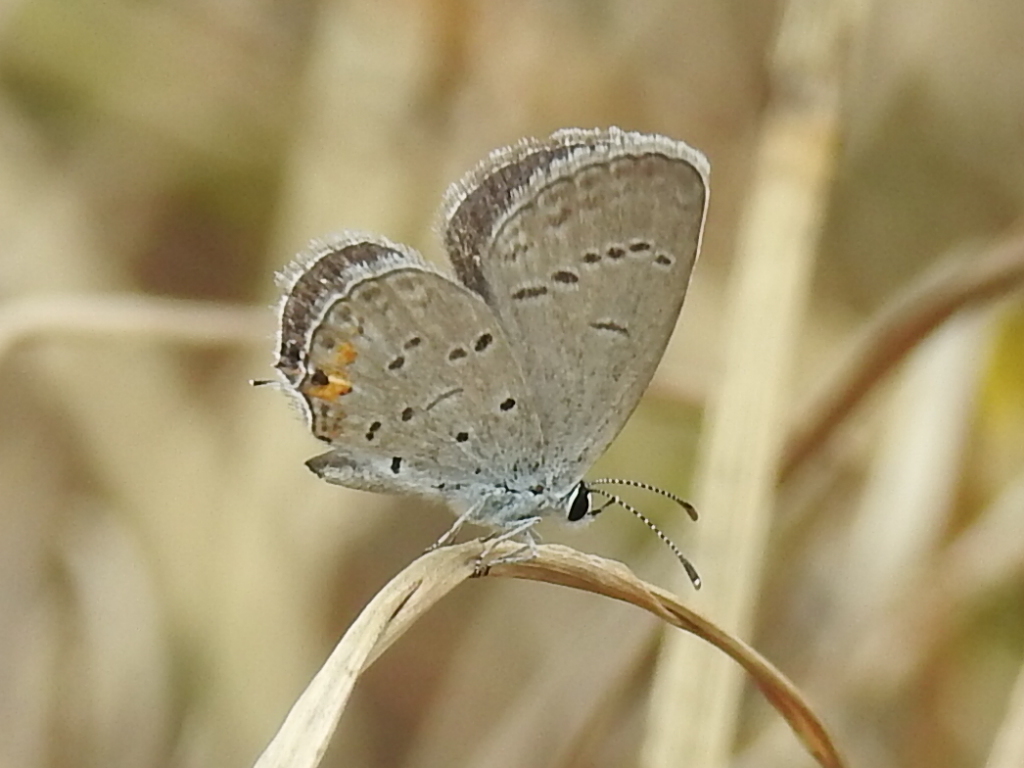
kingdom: Animalia
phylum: Arthropoda
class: Insecta
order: Lepidoptera
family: Lycaenidae
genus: Elkalyce
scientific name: Elkalyce comyntas
